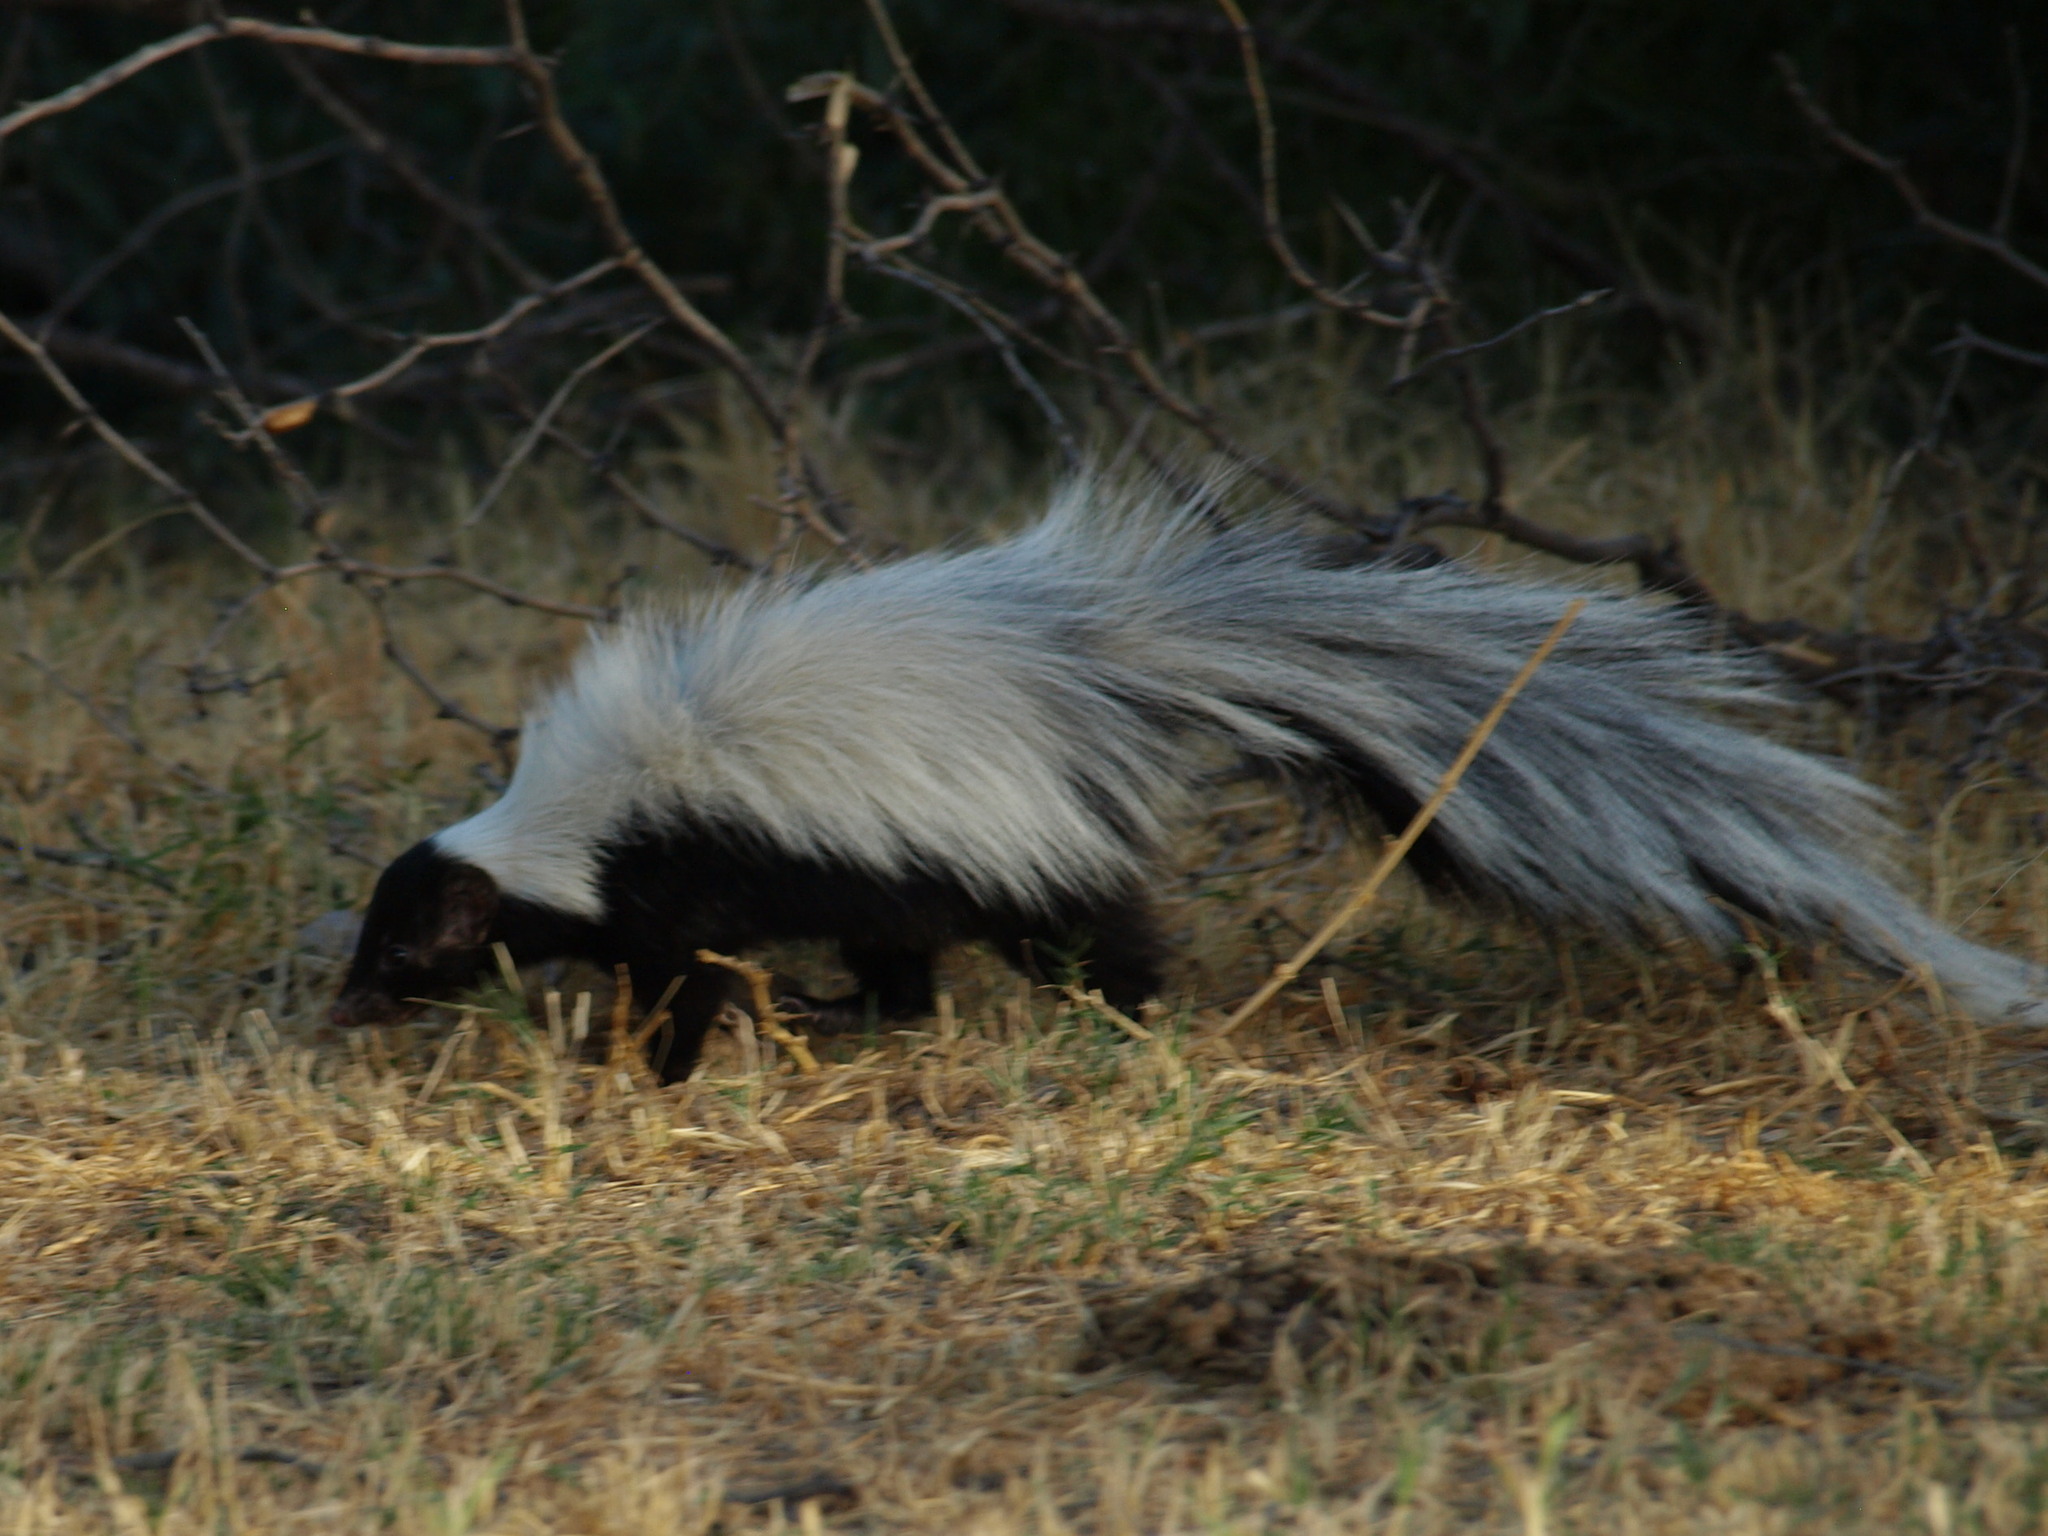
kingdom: Animalia
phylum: Chordata
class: Mammalia
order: Carnivora
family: Mephitidae
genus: Mephitis
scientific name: Mephitis macroura
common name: Hooded skunk
